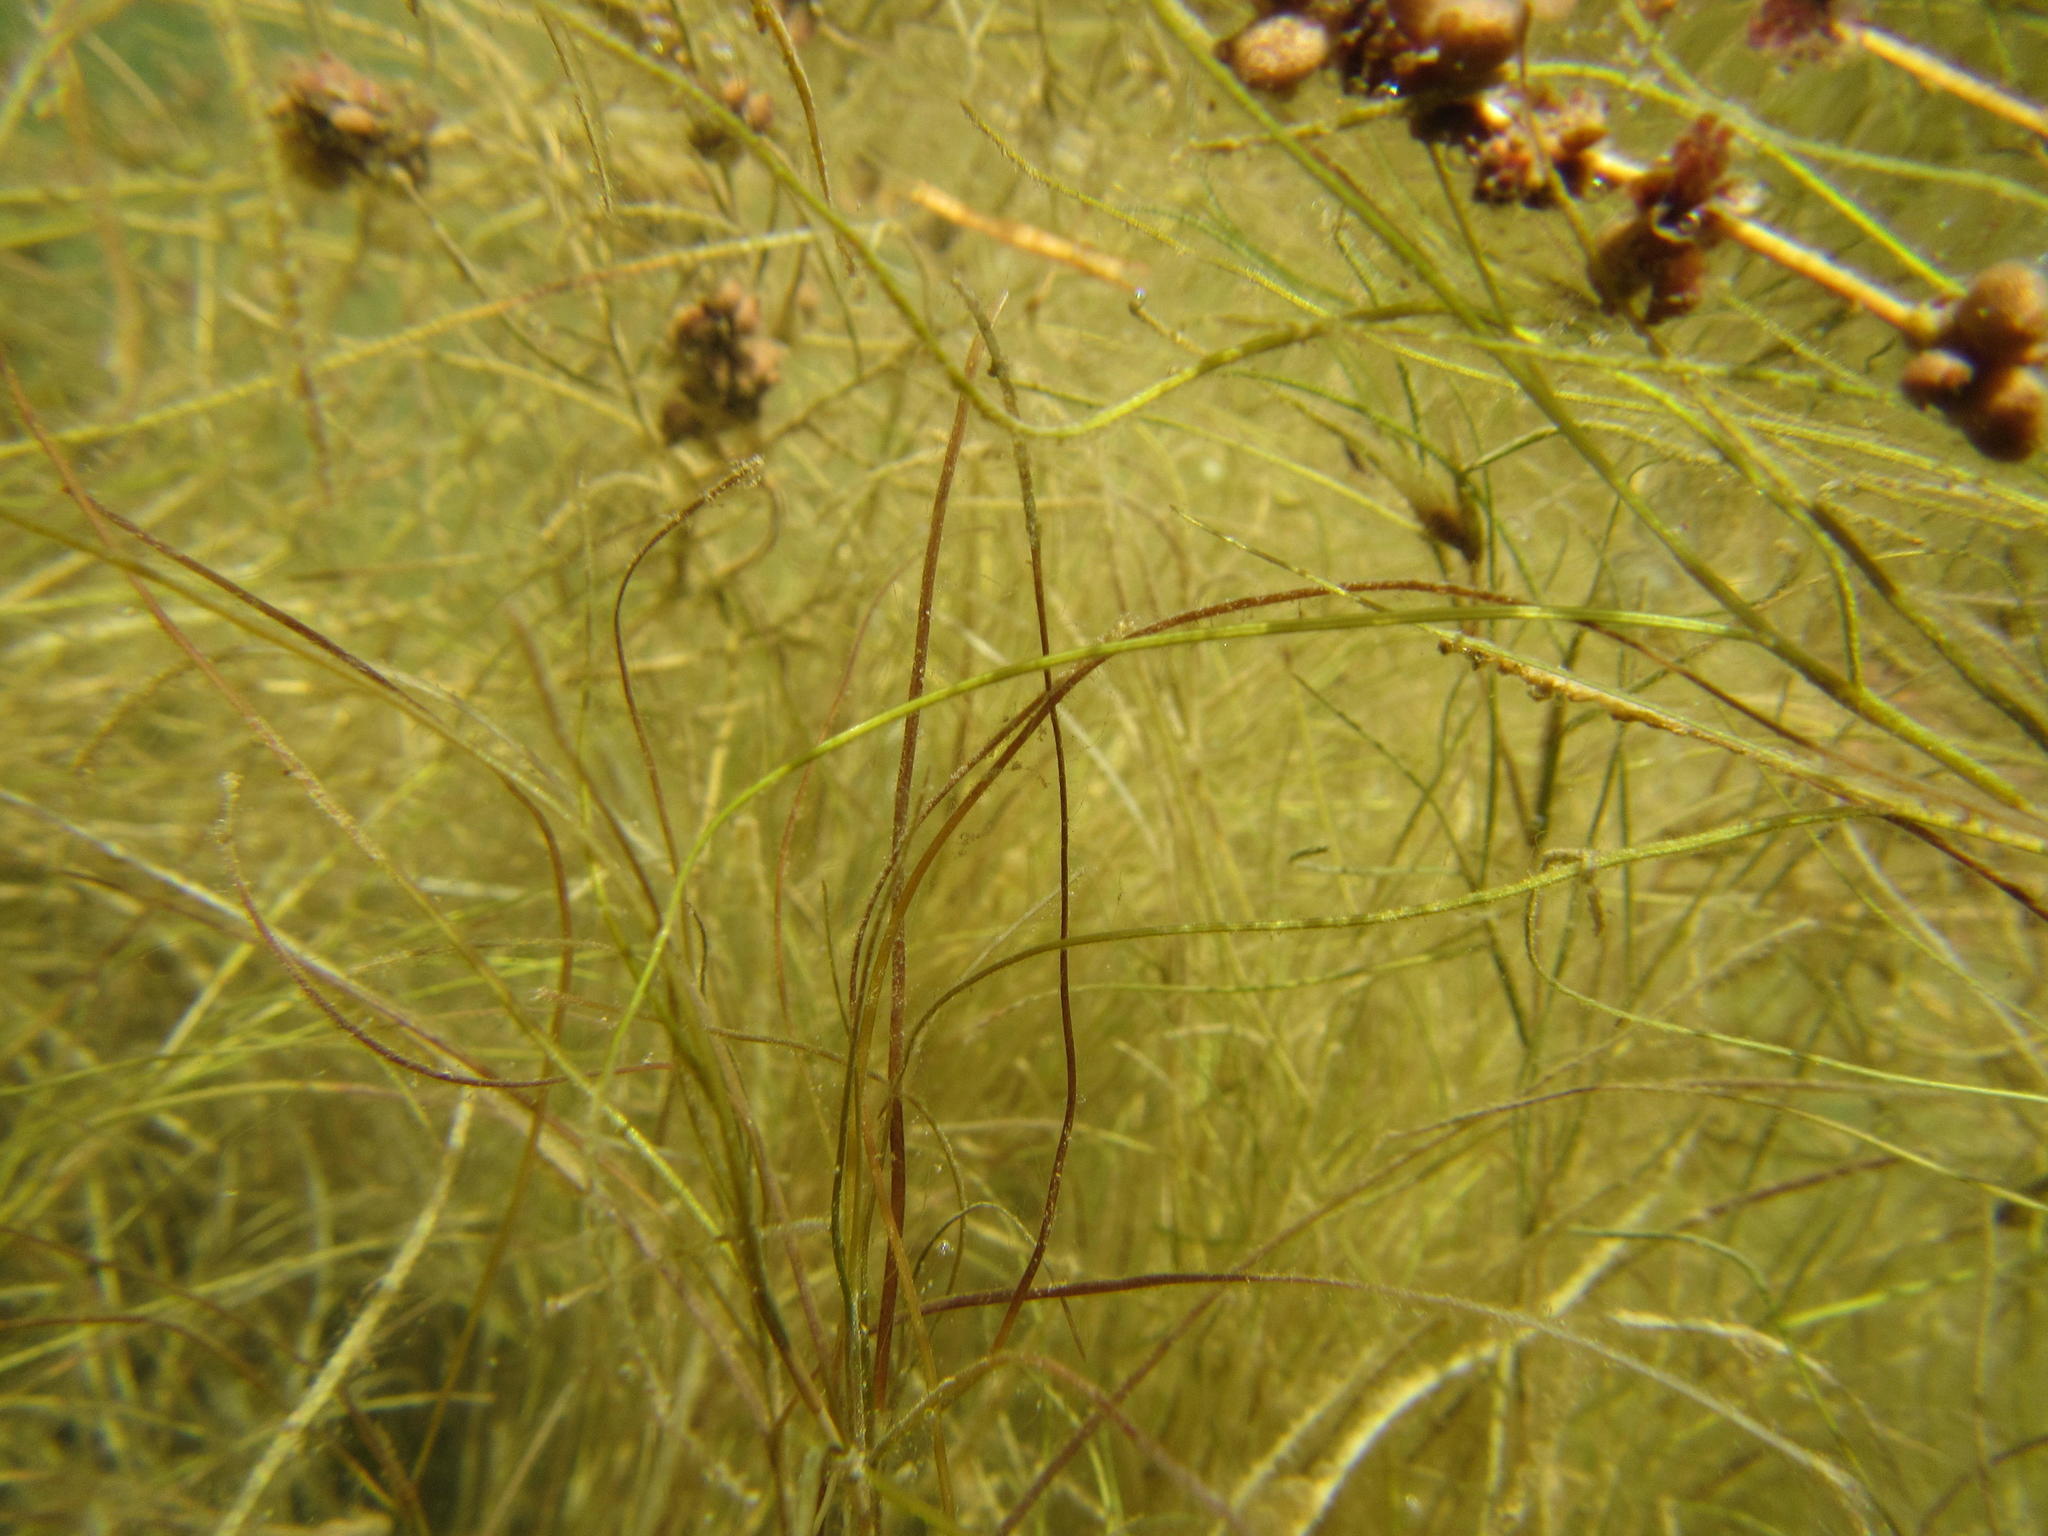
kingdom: Plantae
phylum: Tracheophyta
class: Liliopsida
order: Alismatales
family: Potamogetonaceae
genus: Stuckenia
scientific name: Stuckenia pectinata
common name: Sago pondweed
